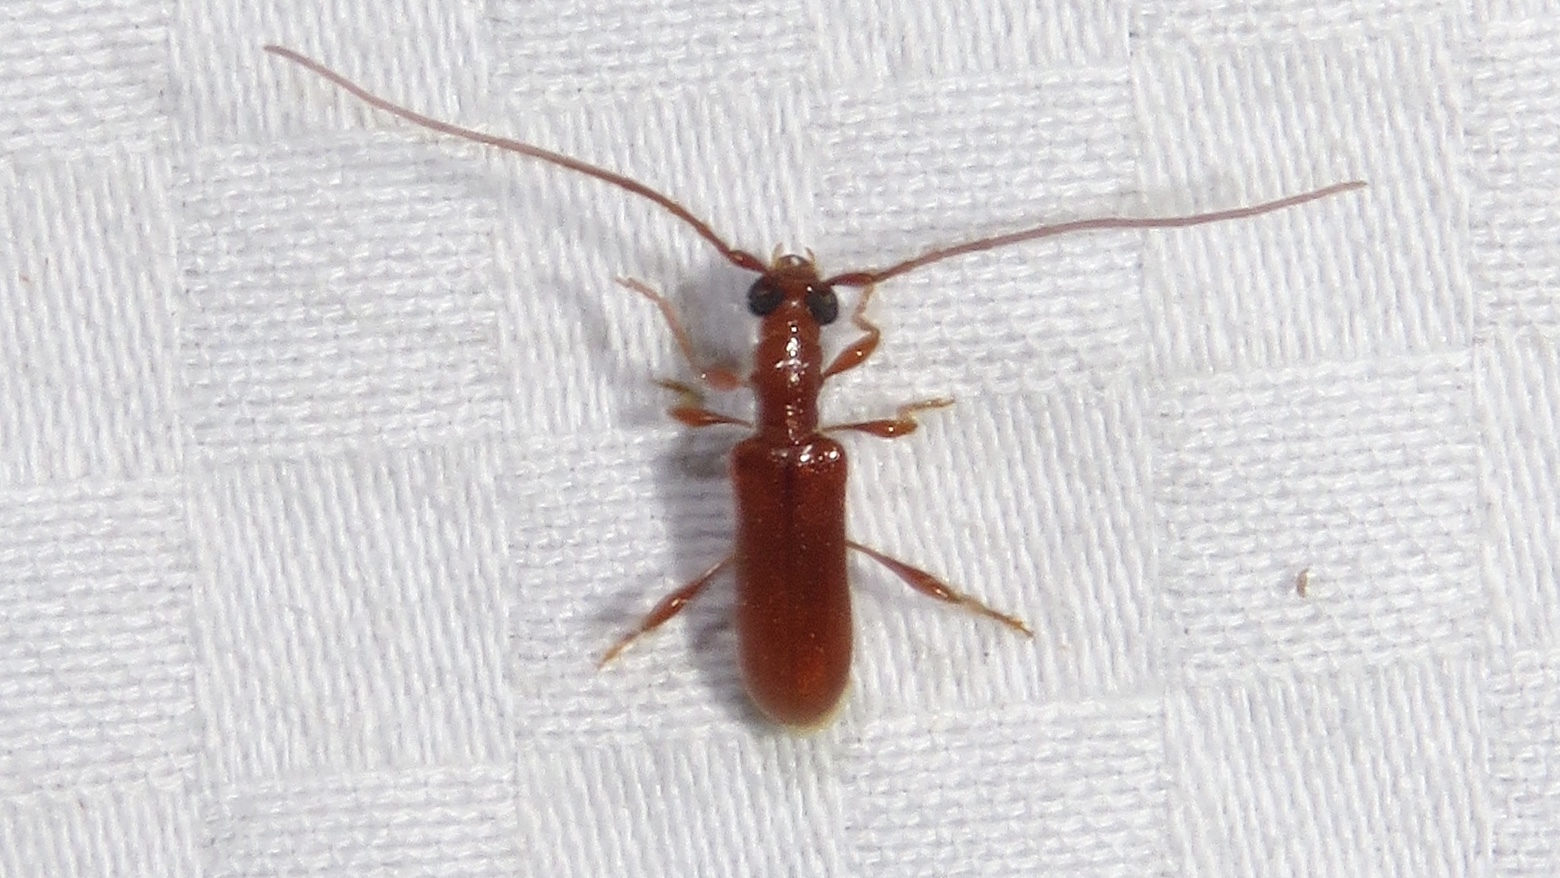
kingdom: Animalia
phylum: Arthropoda
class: Insecta
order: Coleoptera
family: Cerambycidae
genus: Obrium
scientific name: Obrium rufulum
